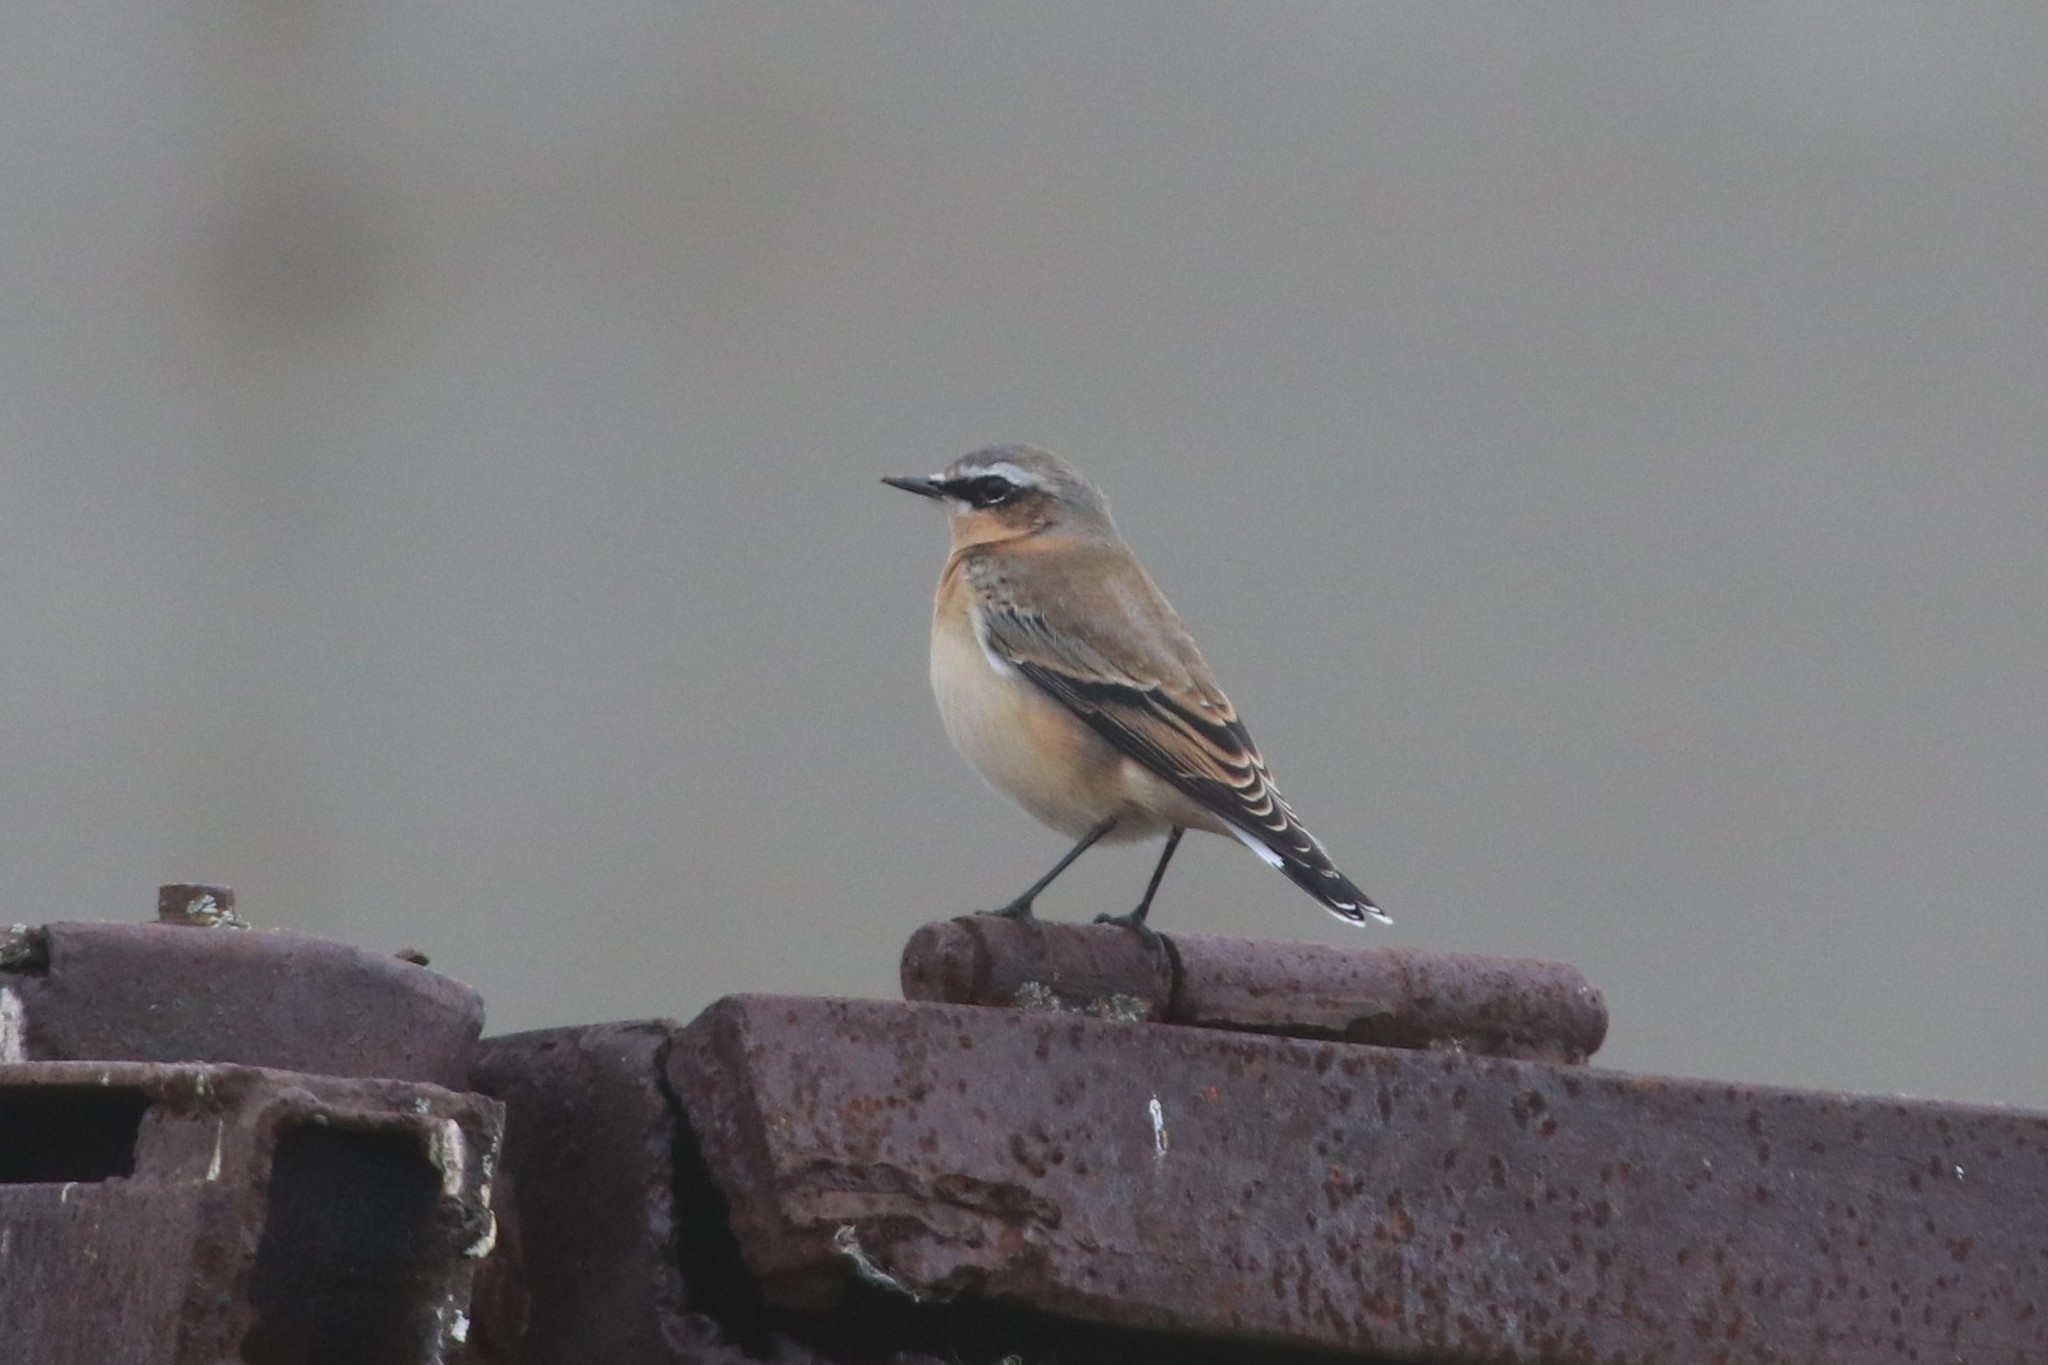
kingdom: Animalia
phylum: Chordata
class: Aves
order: Passeriformes
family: Muscicapidae
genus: Oenanthe
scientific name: Oenanthe oenanthe
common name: Northern wheatear
